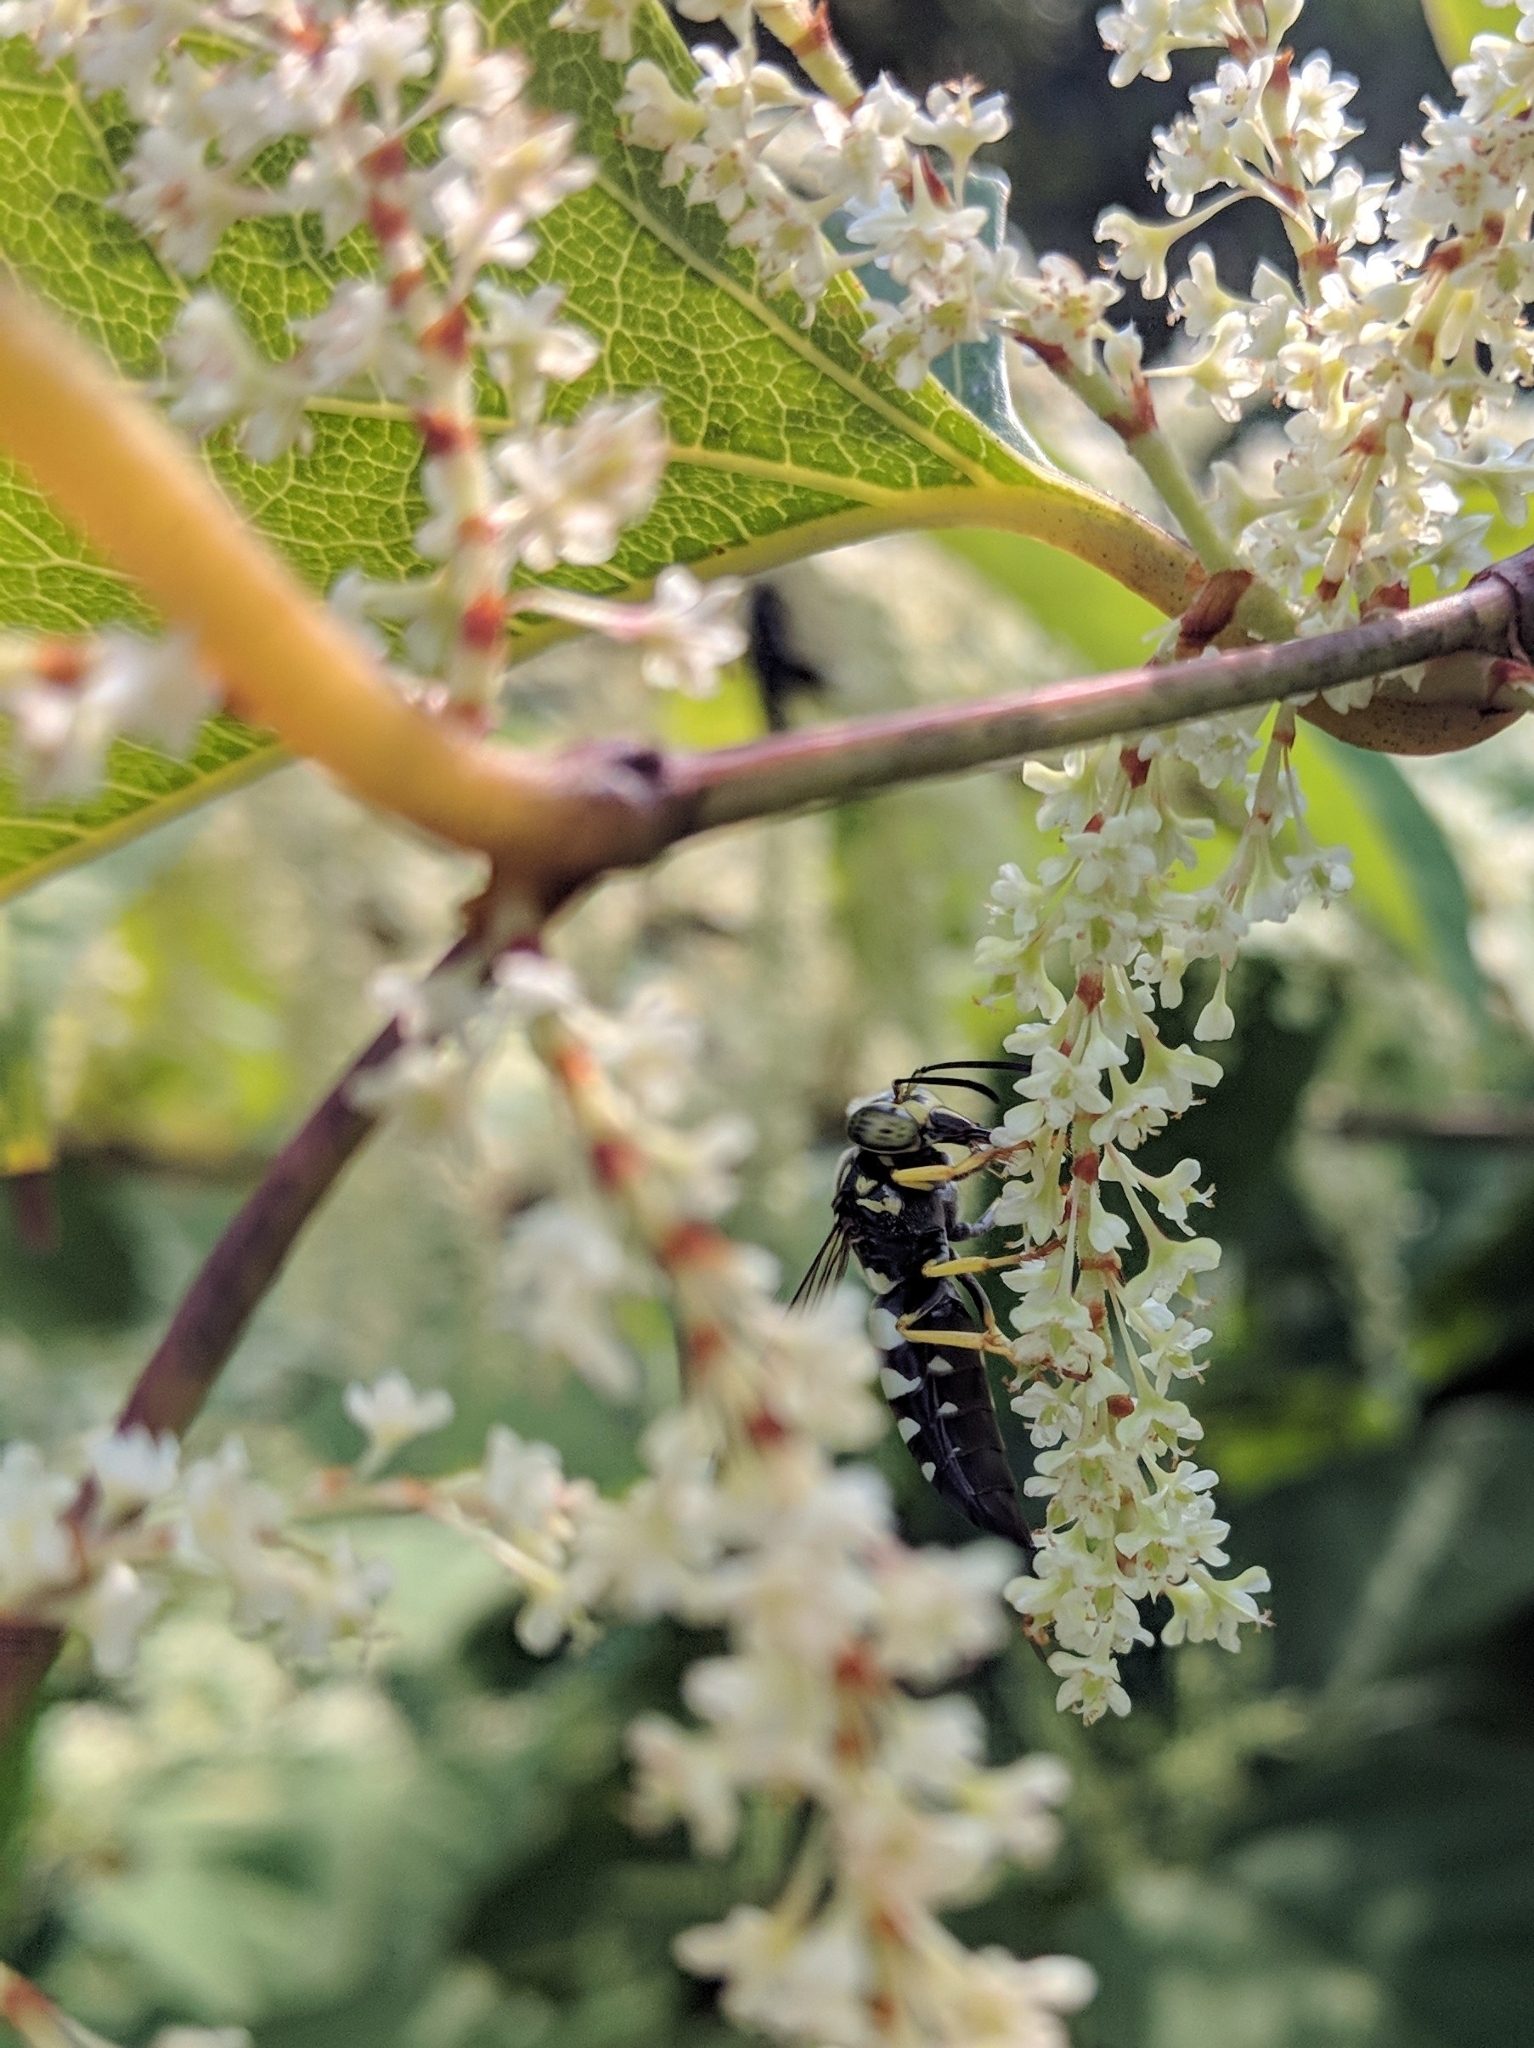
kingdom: Animalia
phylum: Arthropoda
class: Insecta
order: Hymenoptera
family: Crabronidae
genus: Bicyrtes
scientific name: Bicyrtes quadrifasciatus
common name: Four-banded stink bug hunter wasp
